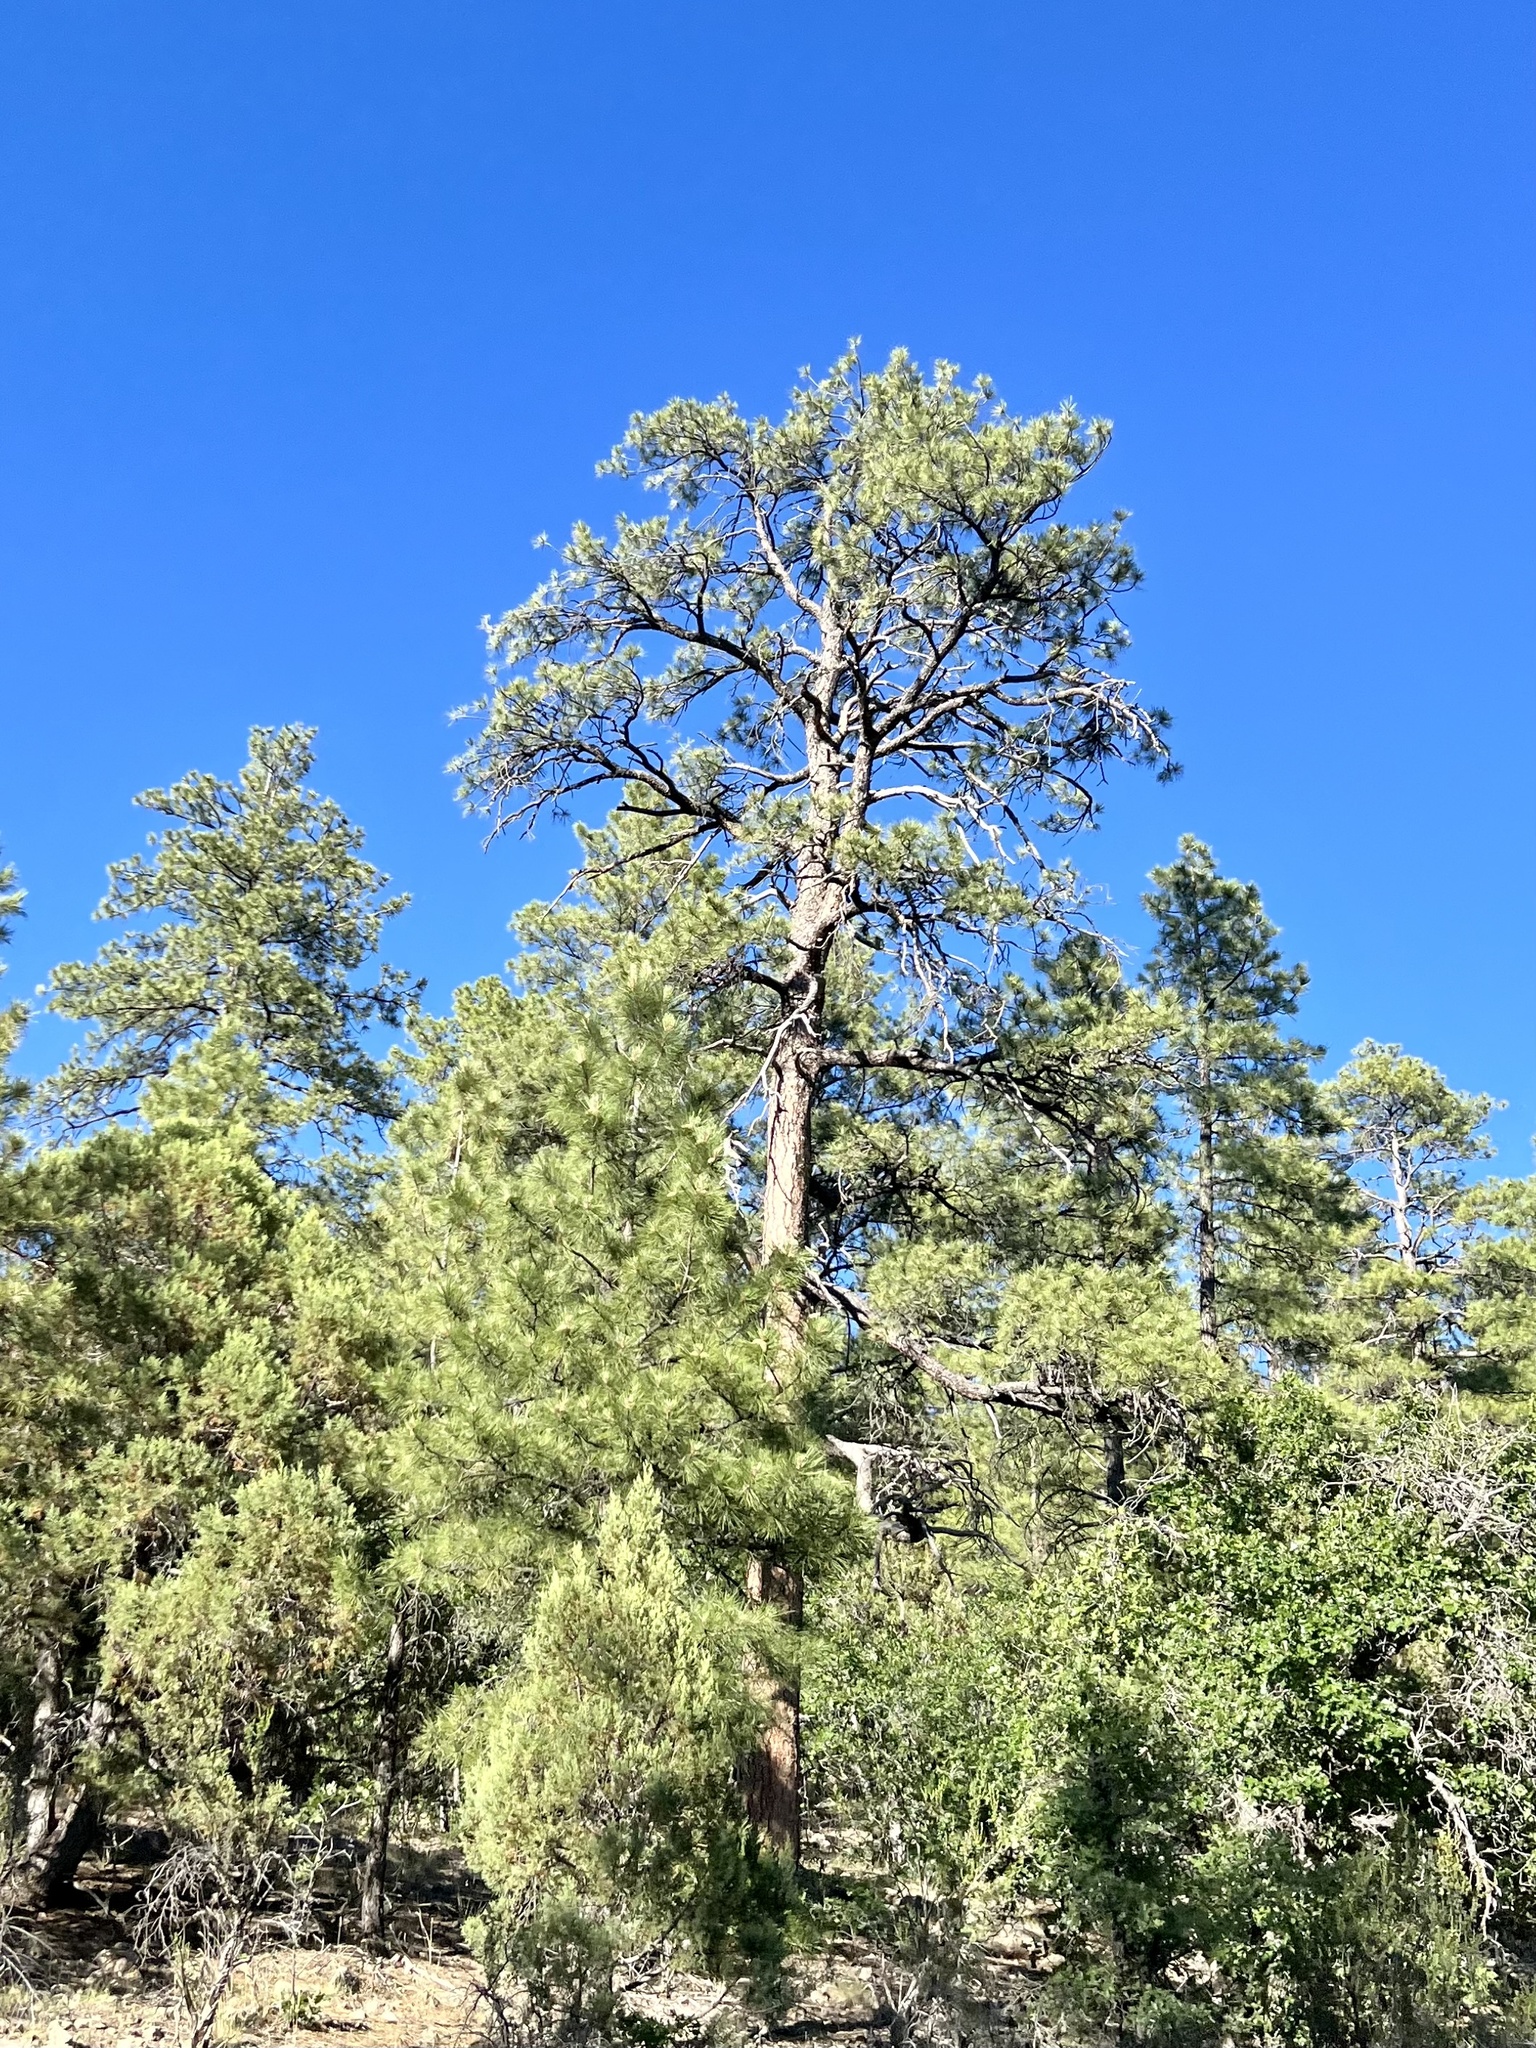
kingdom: Plantae
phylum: Tracheophyta
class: Pinopsida
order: Pinales
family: Pinaceae
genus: Pinus
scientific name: Pinus ponderosa
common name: Western yellow-pine
